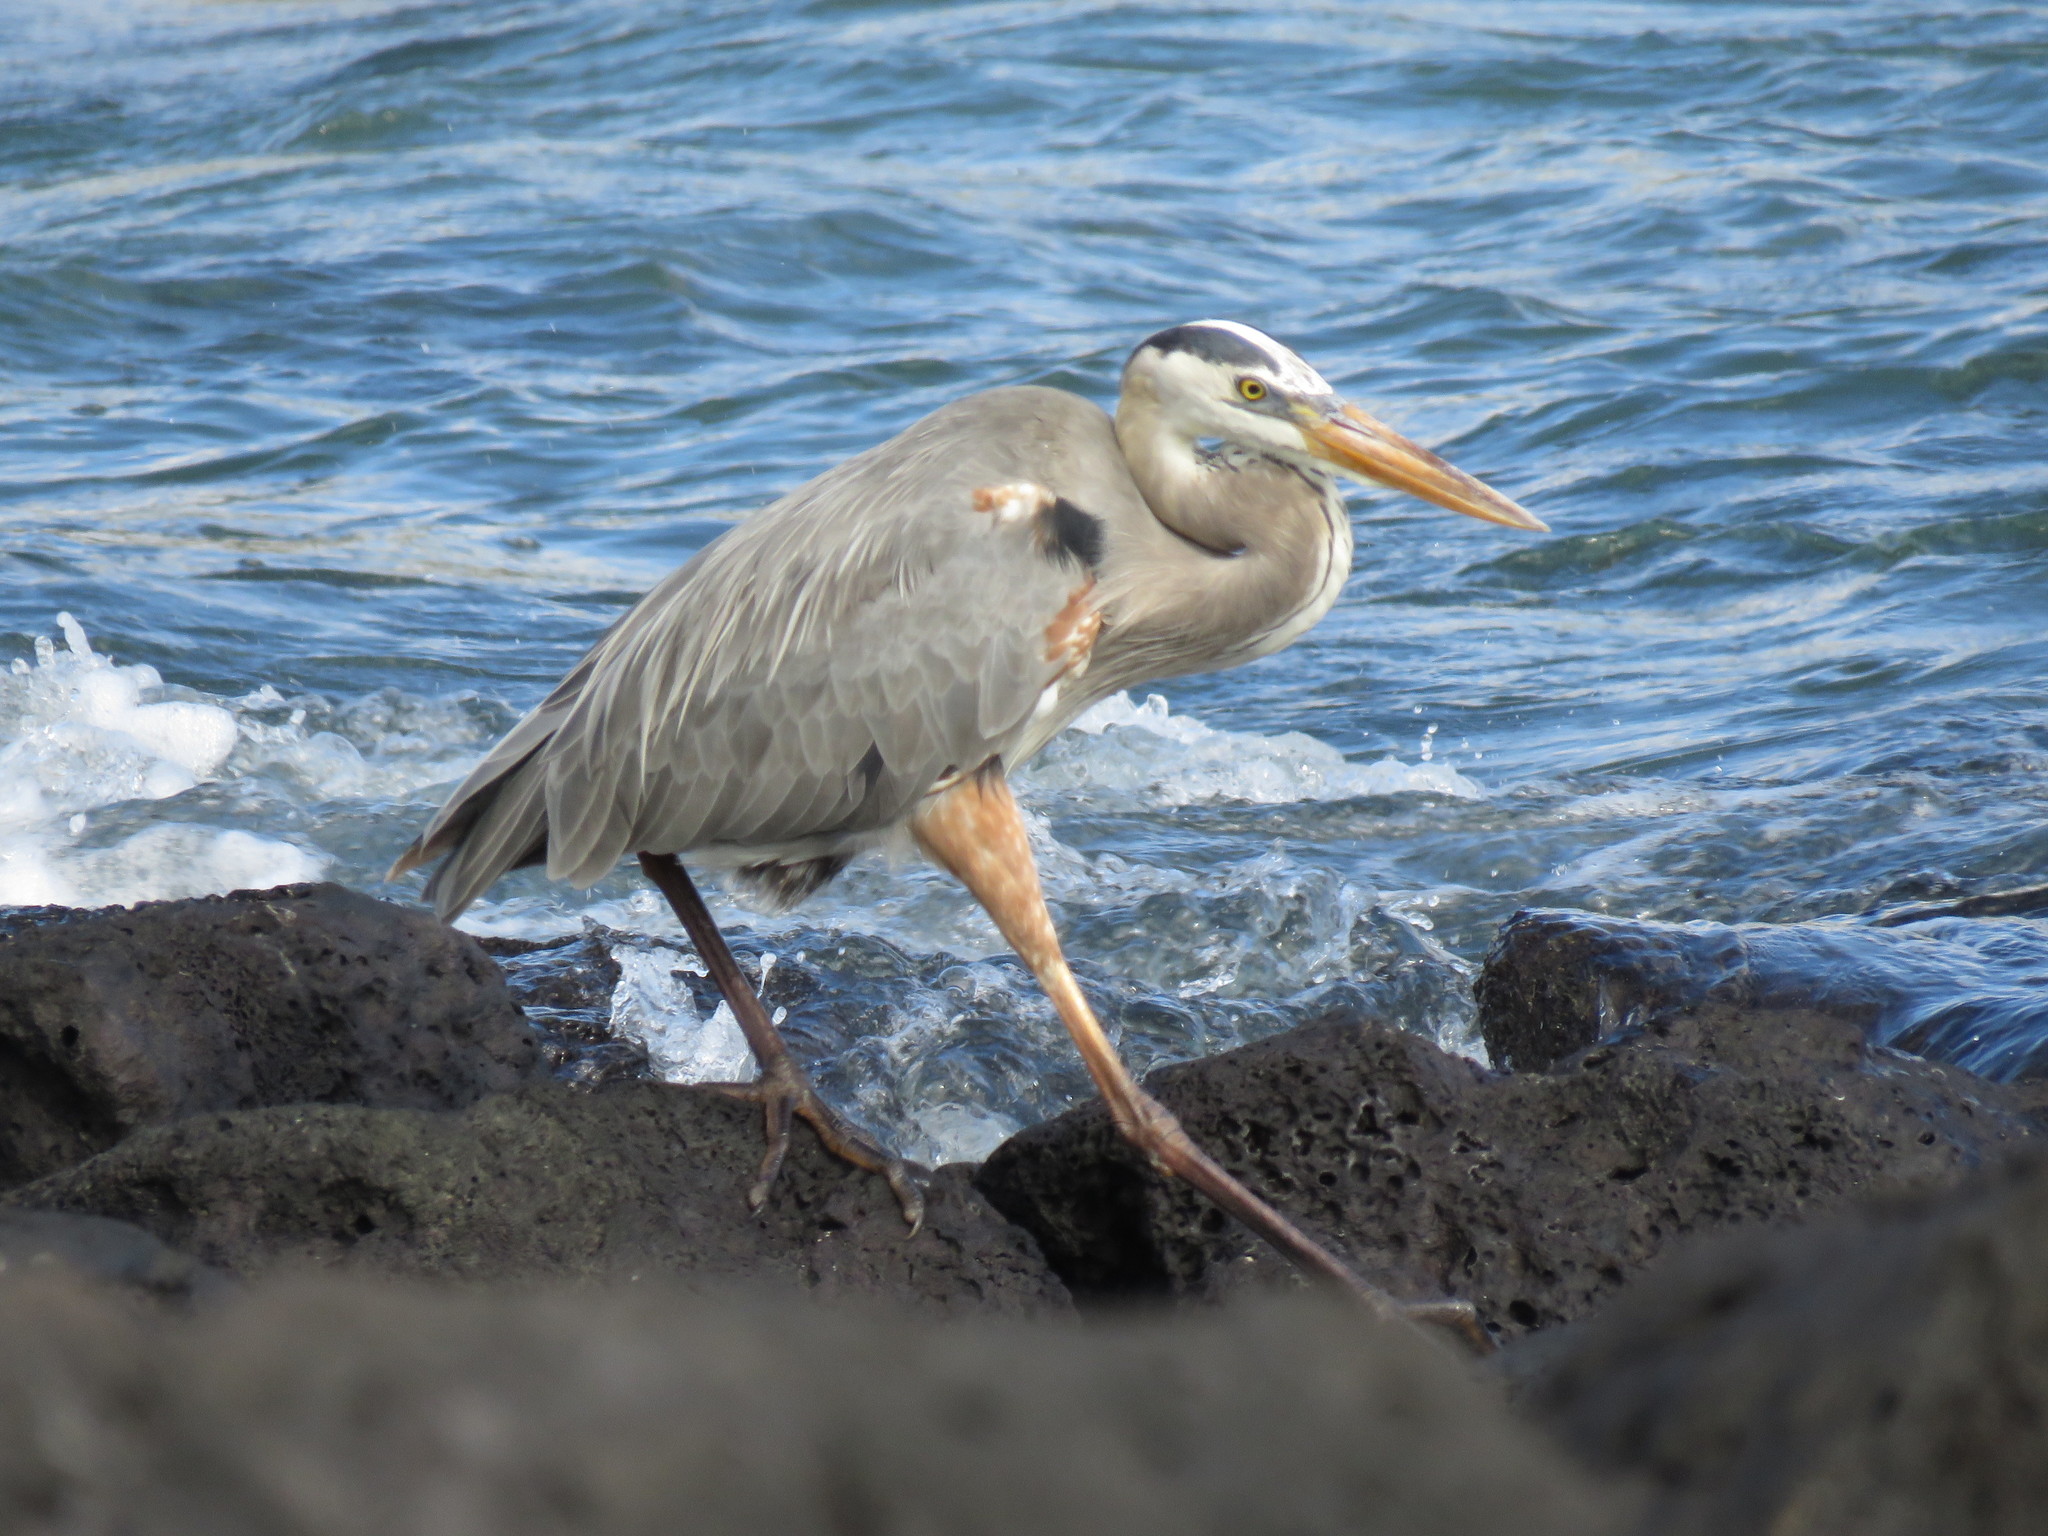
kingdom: Animalia
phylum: Chordata
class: Aves
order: Pelecaniformes
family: Ardeidae
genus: Ardea
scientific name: Ardea herodias
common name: Great blue heron
